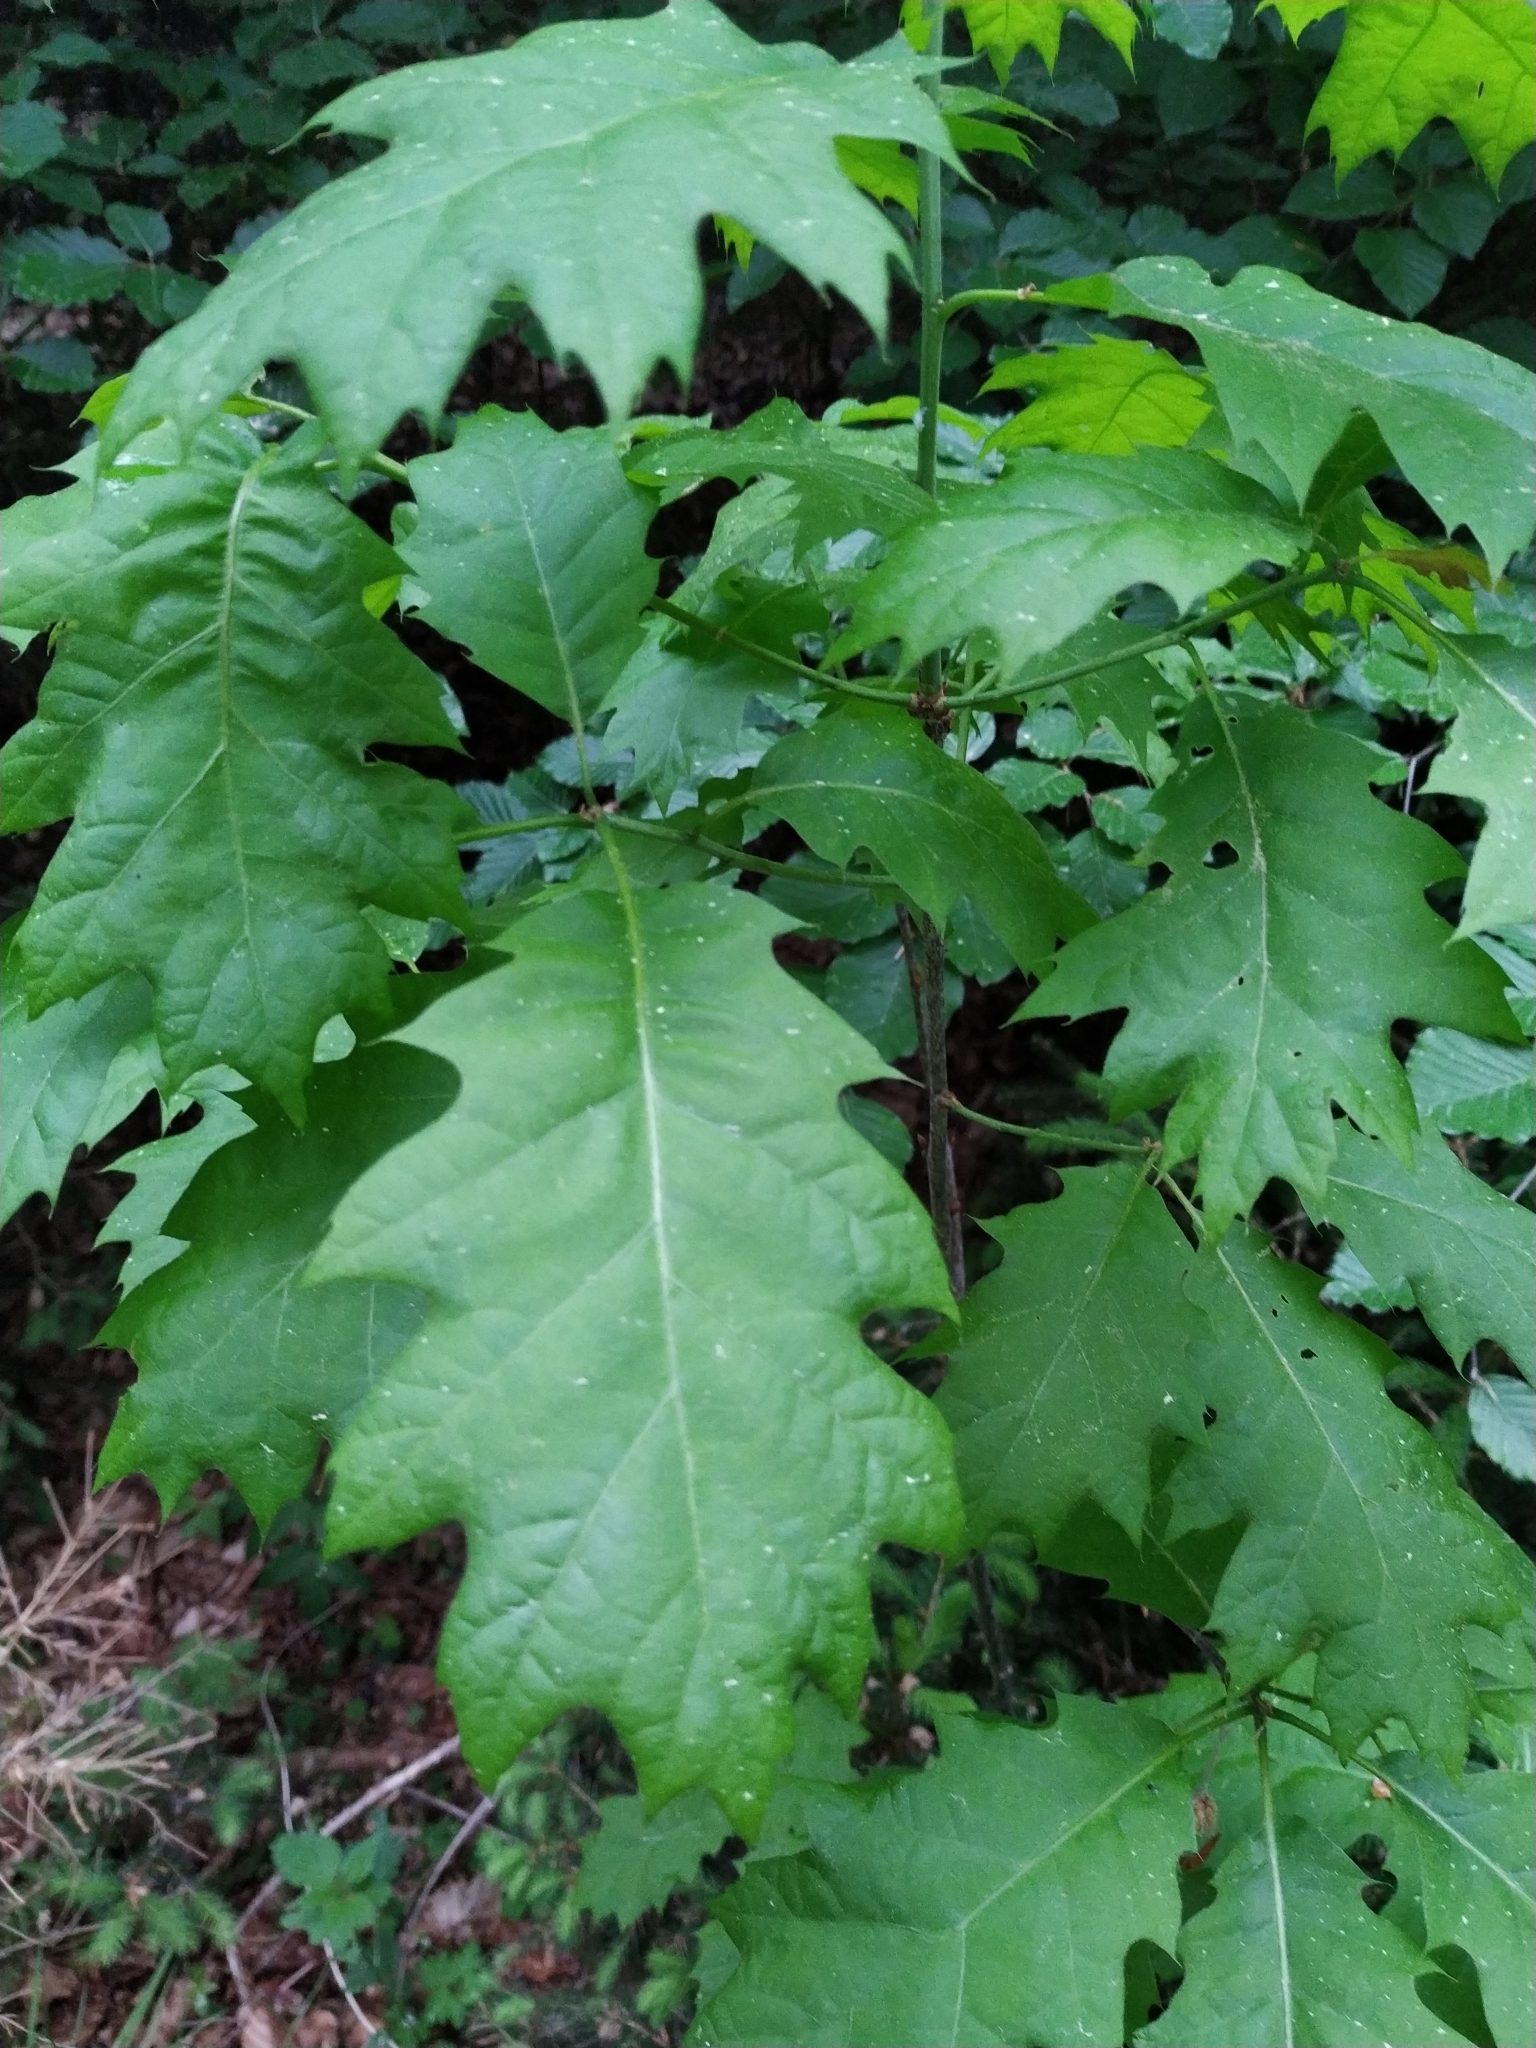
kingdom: Plantae
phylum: Tracheophyta
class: Magnoliopsida
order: Fagales
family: Fagaceae
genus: Quercus
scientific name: Quercus rubra
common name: Red oak
